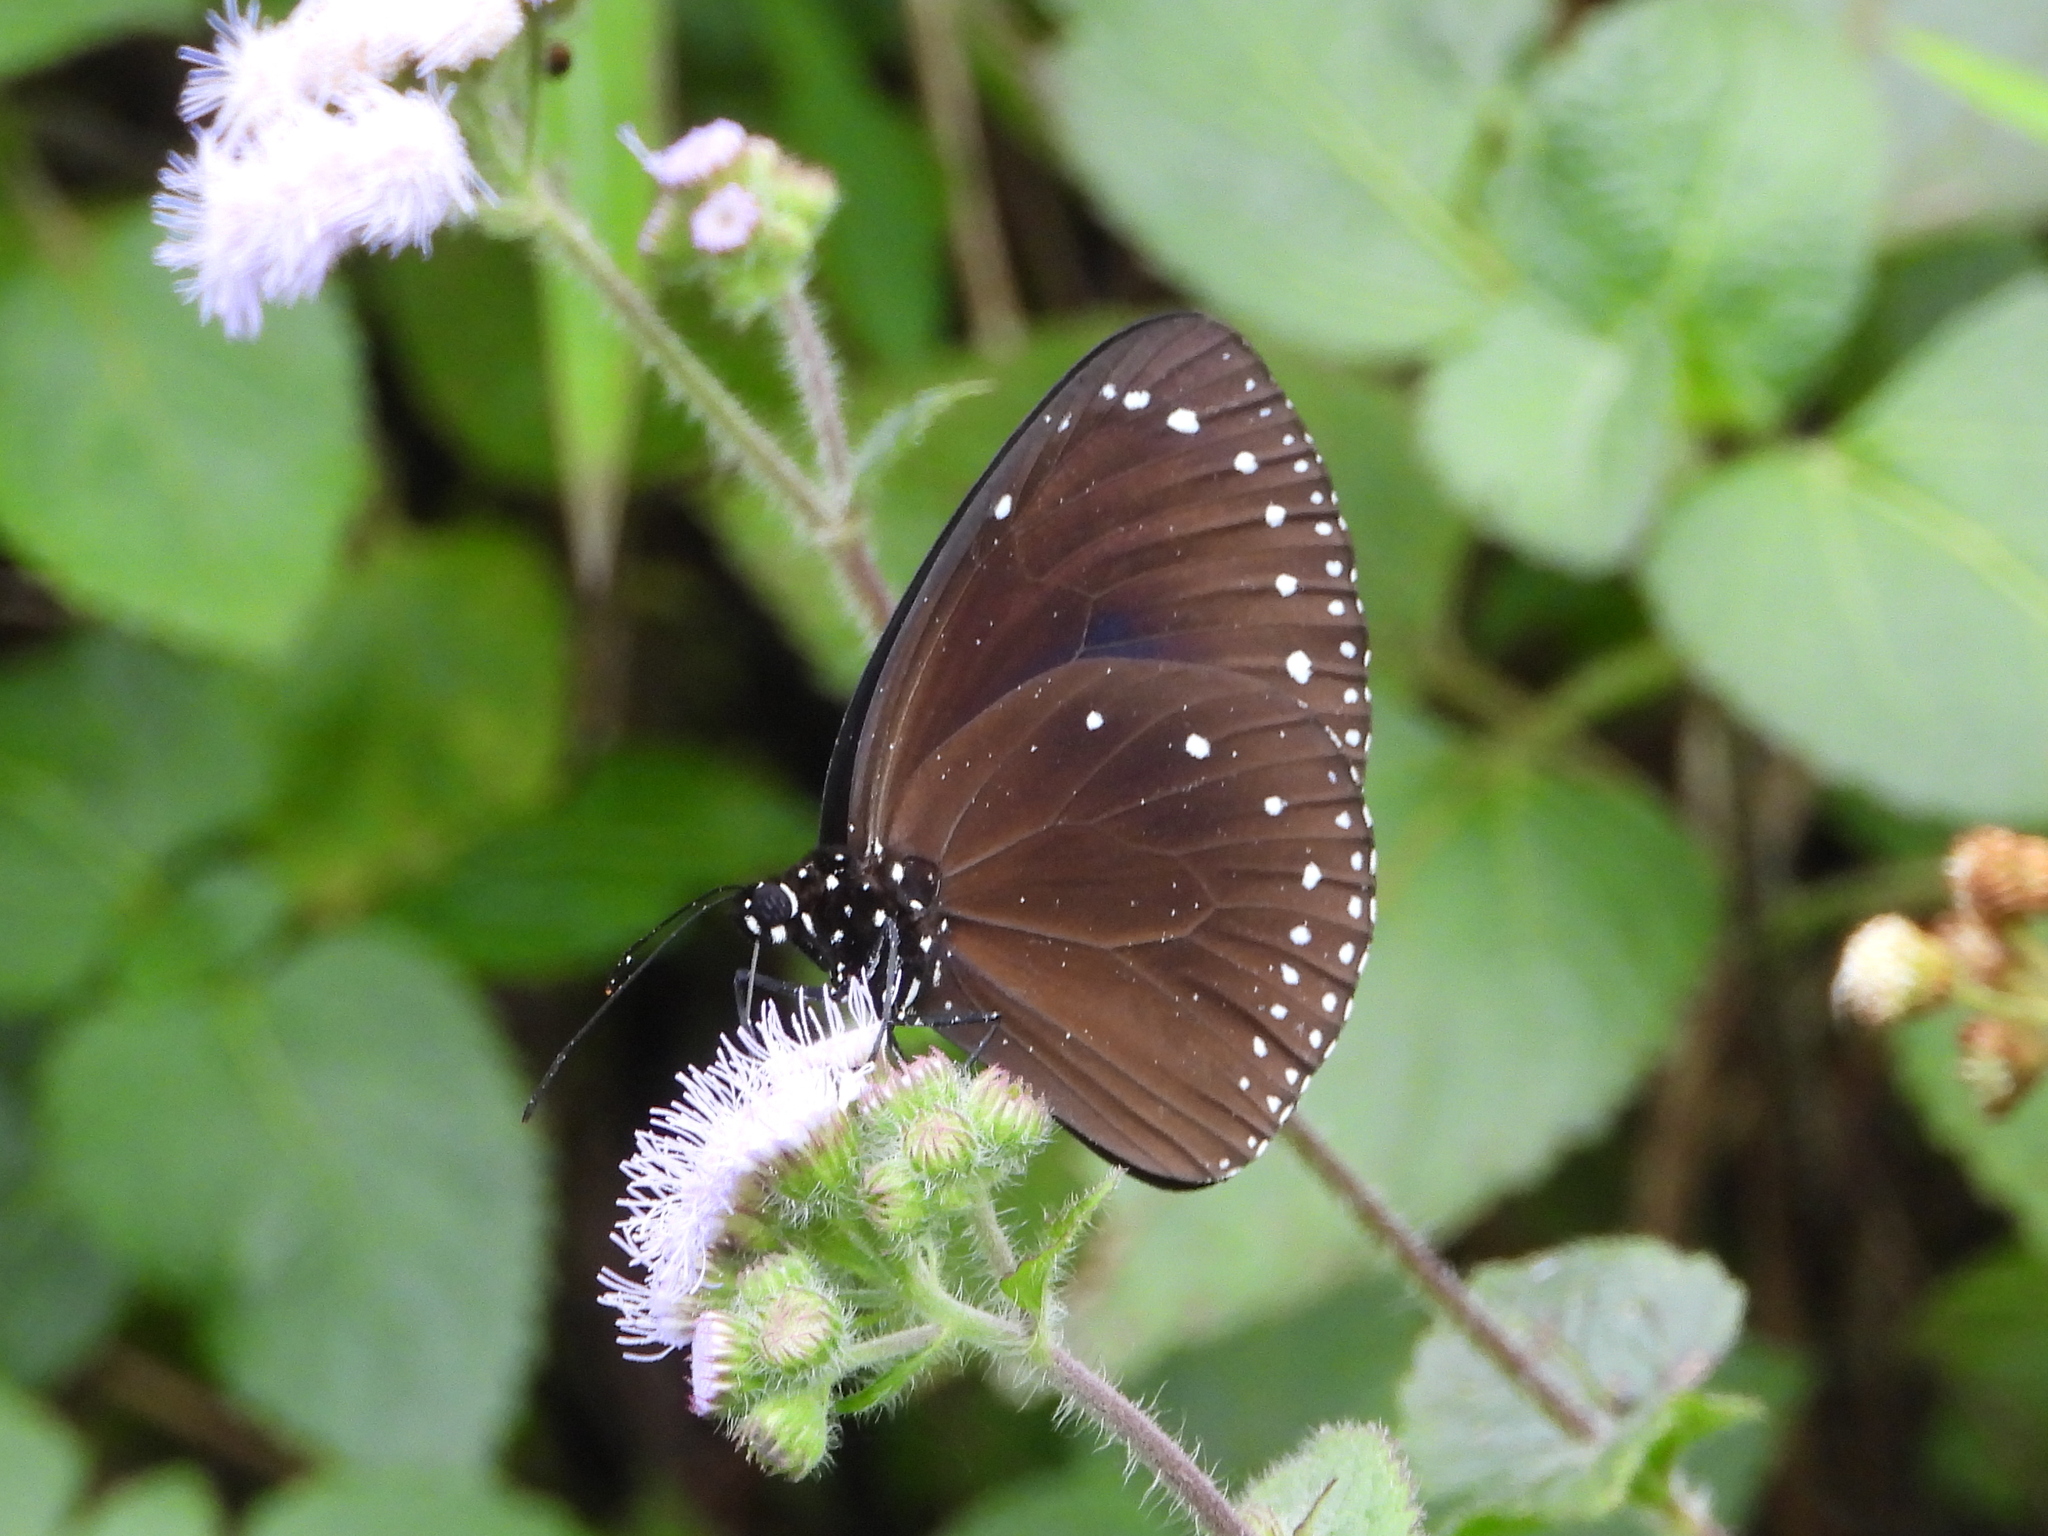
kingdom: Animalia
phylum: Arthropoda
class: Insecta
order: Lepidoptera
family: Nymphalidae
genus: Euploea
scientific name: Euploea eunice
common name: Blue-banded king crow butterfly
